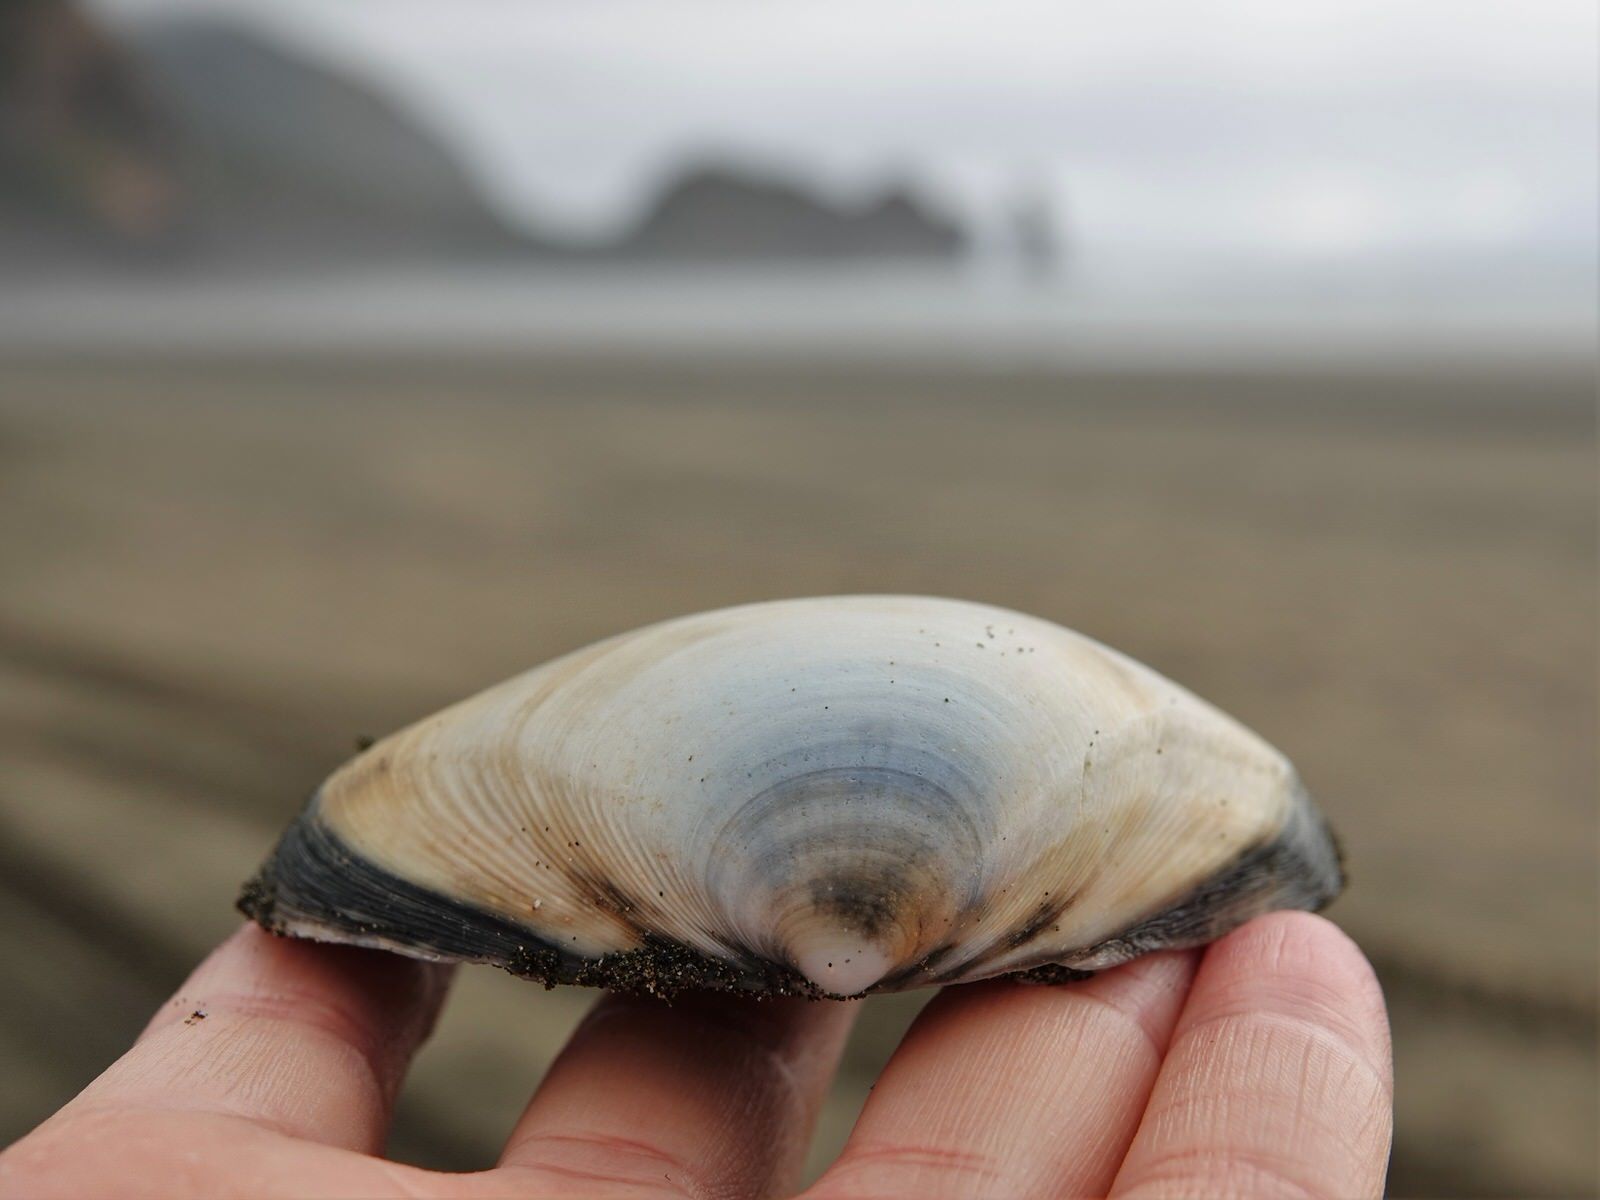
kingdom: Animalia
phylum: Mollusca
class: Bivalvia
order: Venerida
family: Mactridae
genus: Spisula
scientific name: Spisula murchisoni
